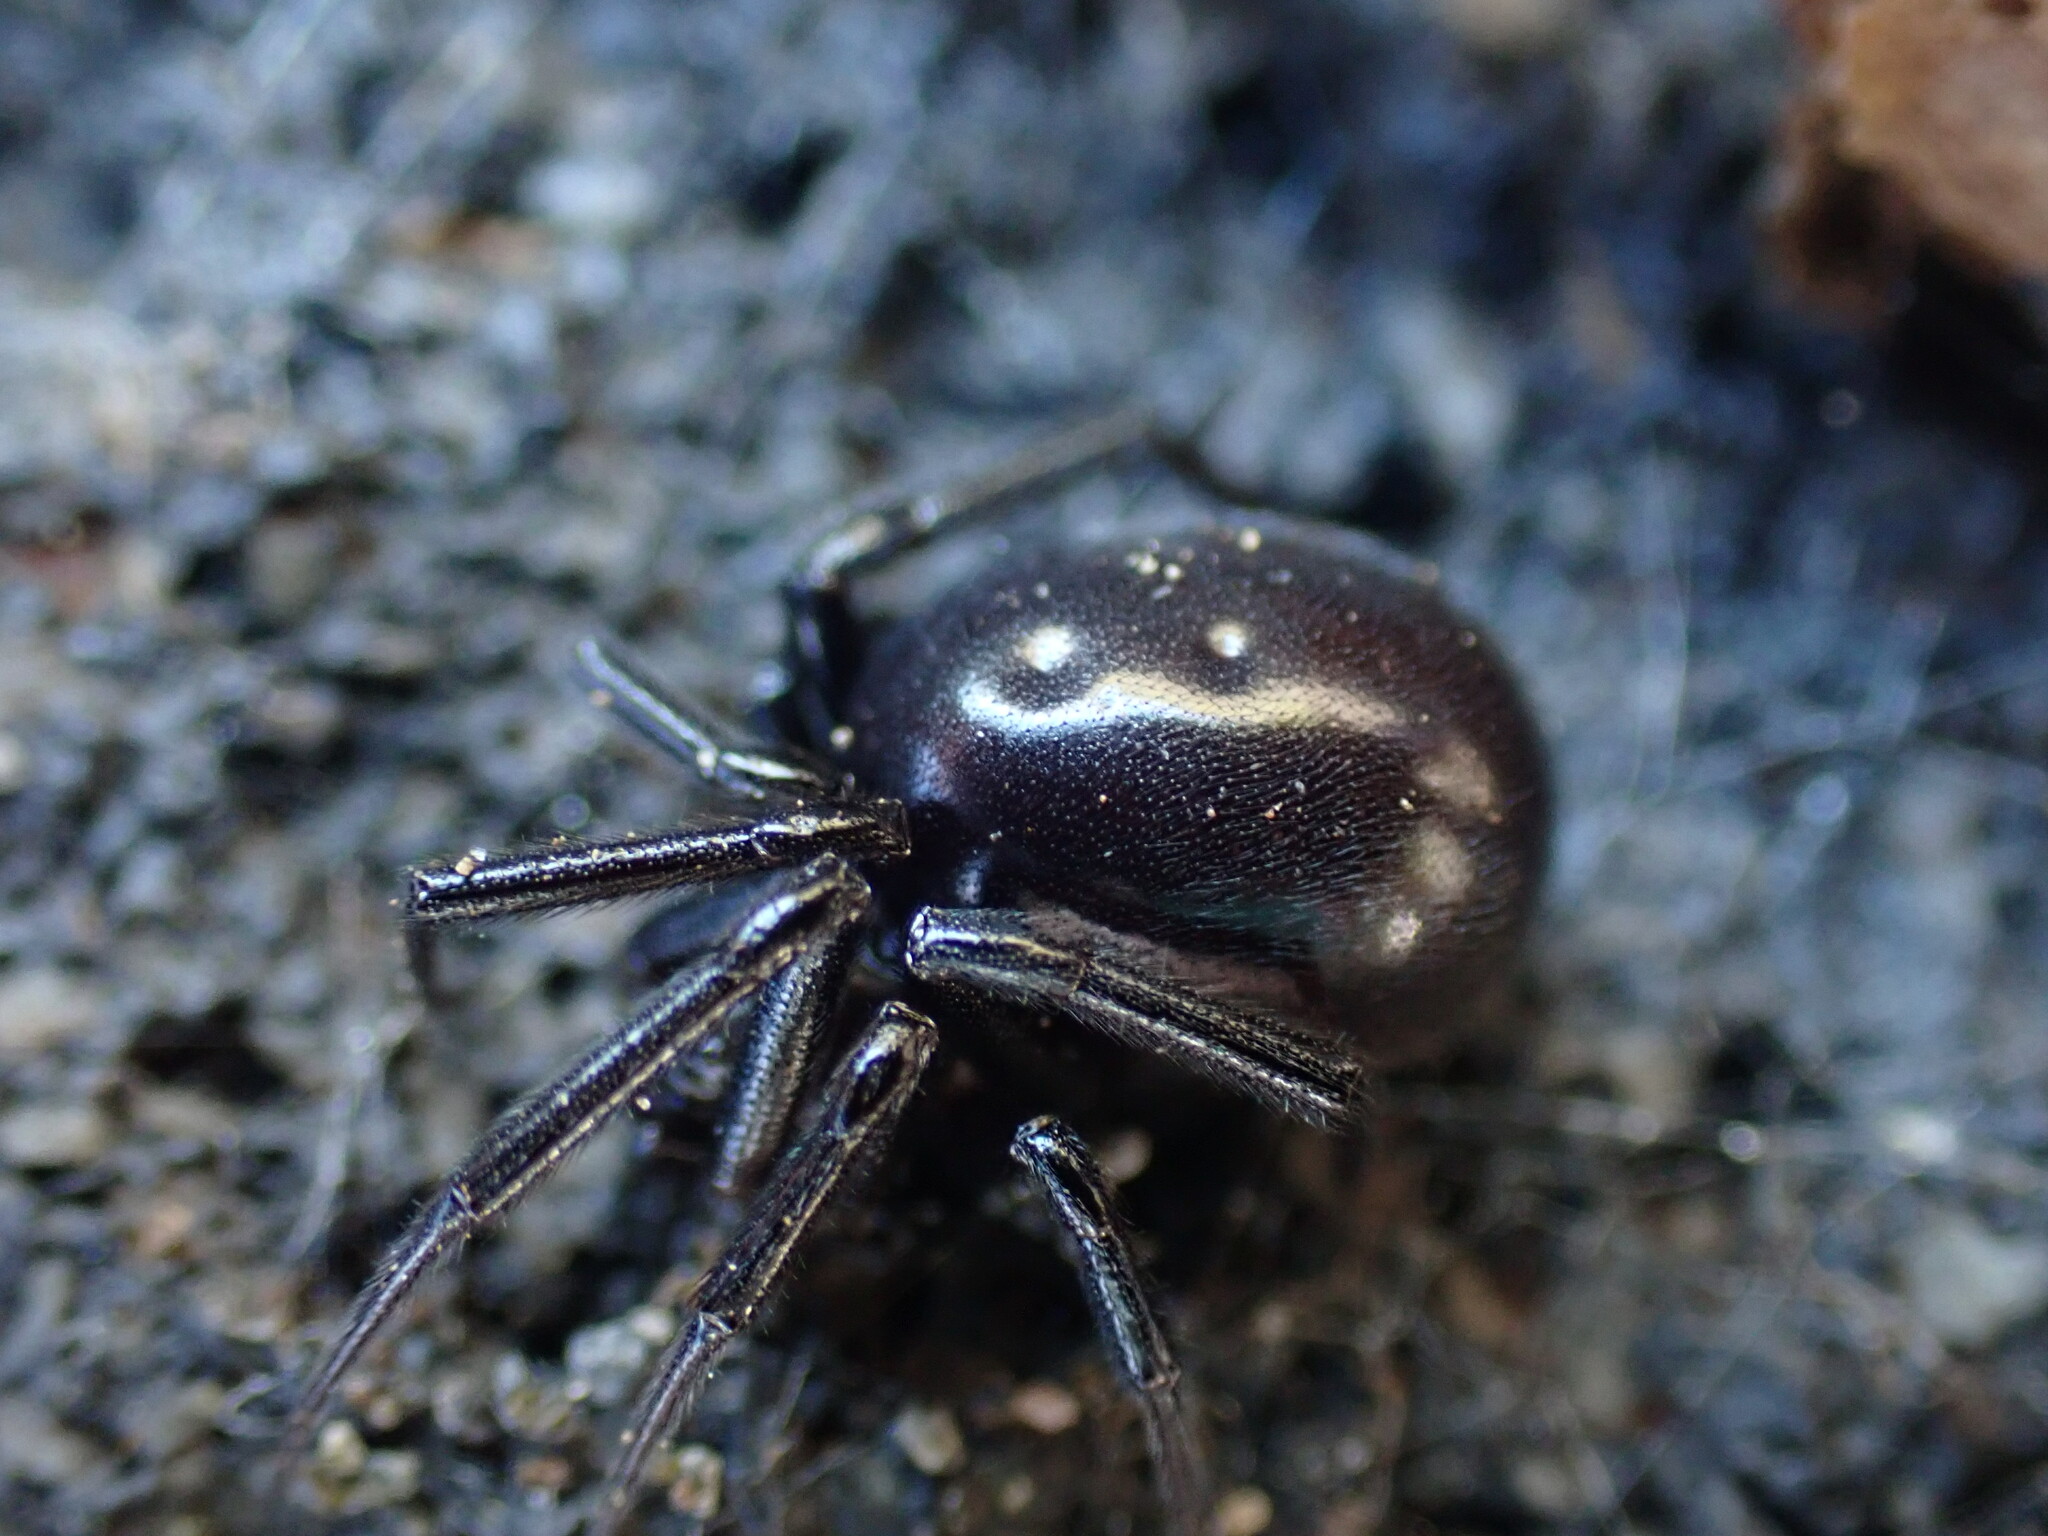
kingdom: Animalia
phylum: Arthropoda
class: Arachnida
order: Araneae
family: Theridiidae
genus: Steatoda
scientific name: Steatoda capensis
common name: Cobweb weaver
